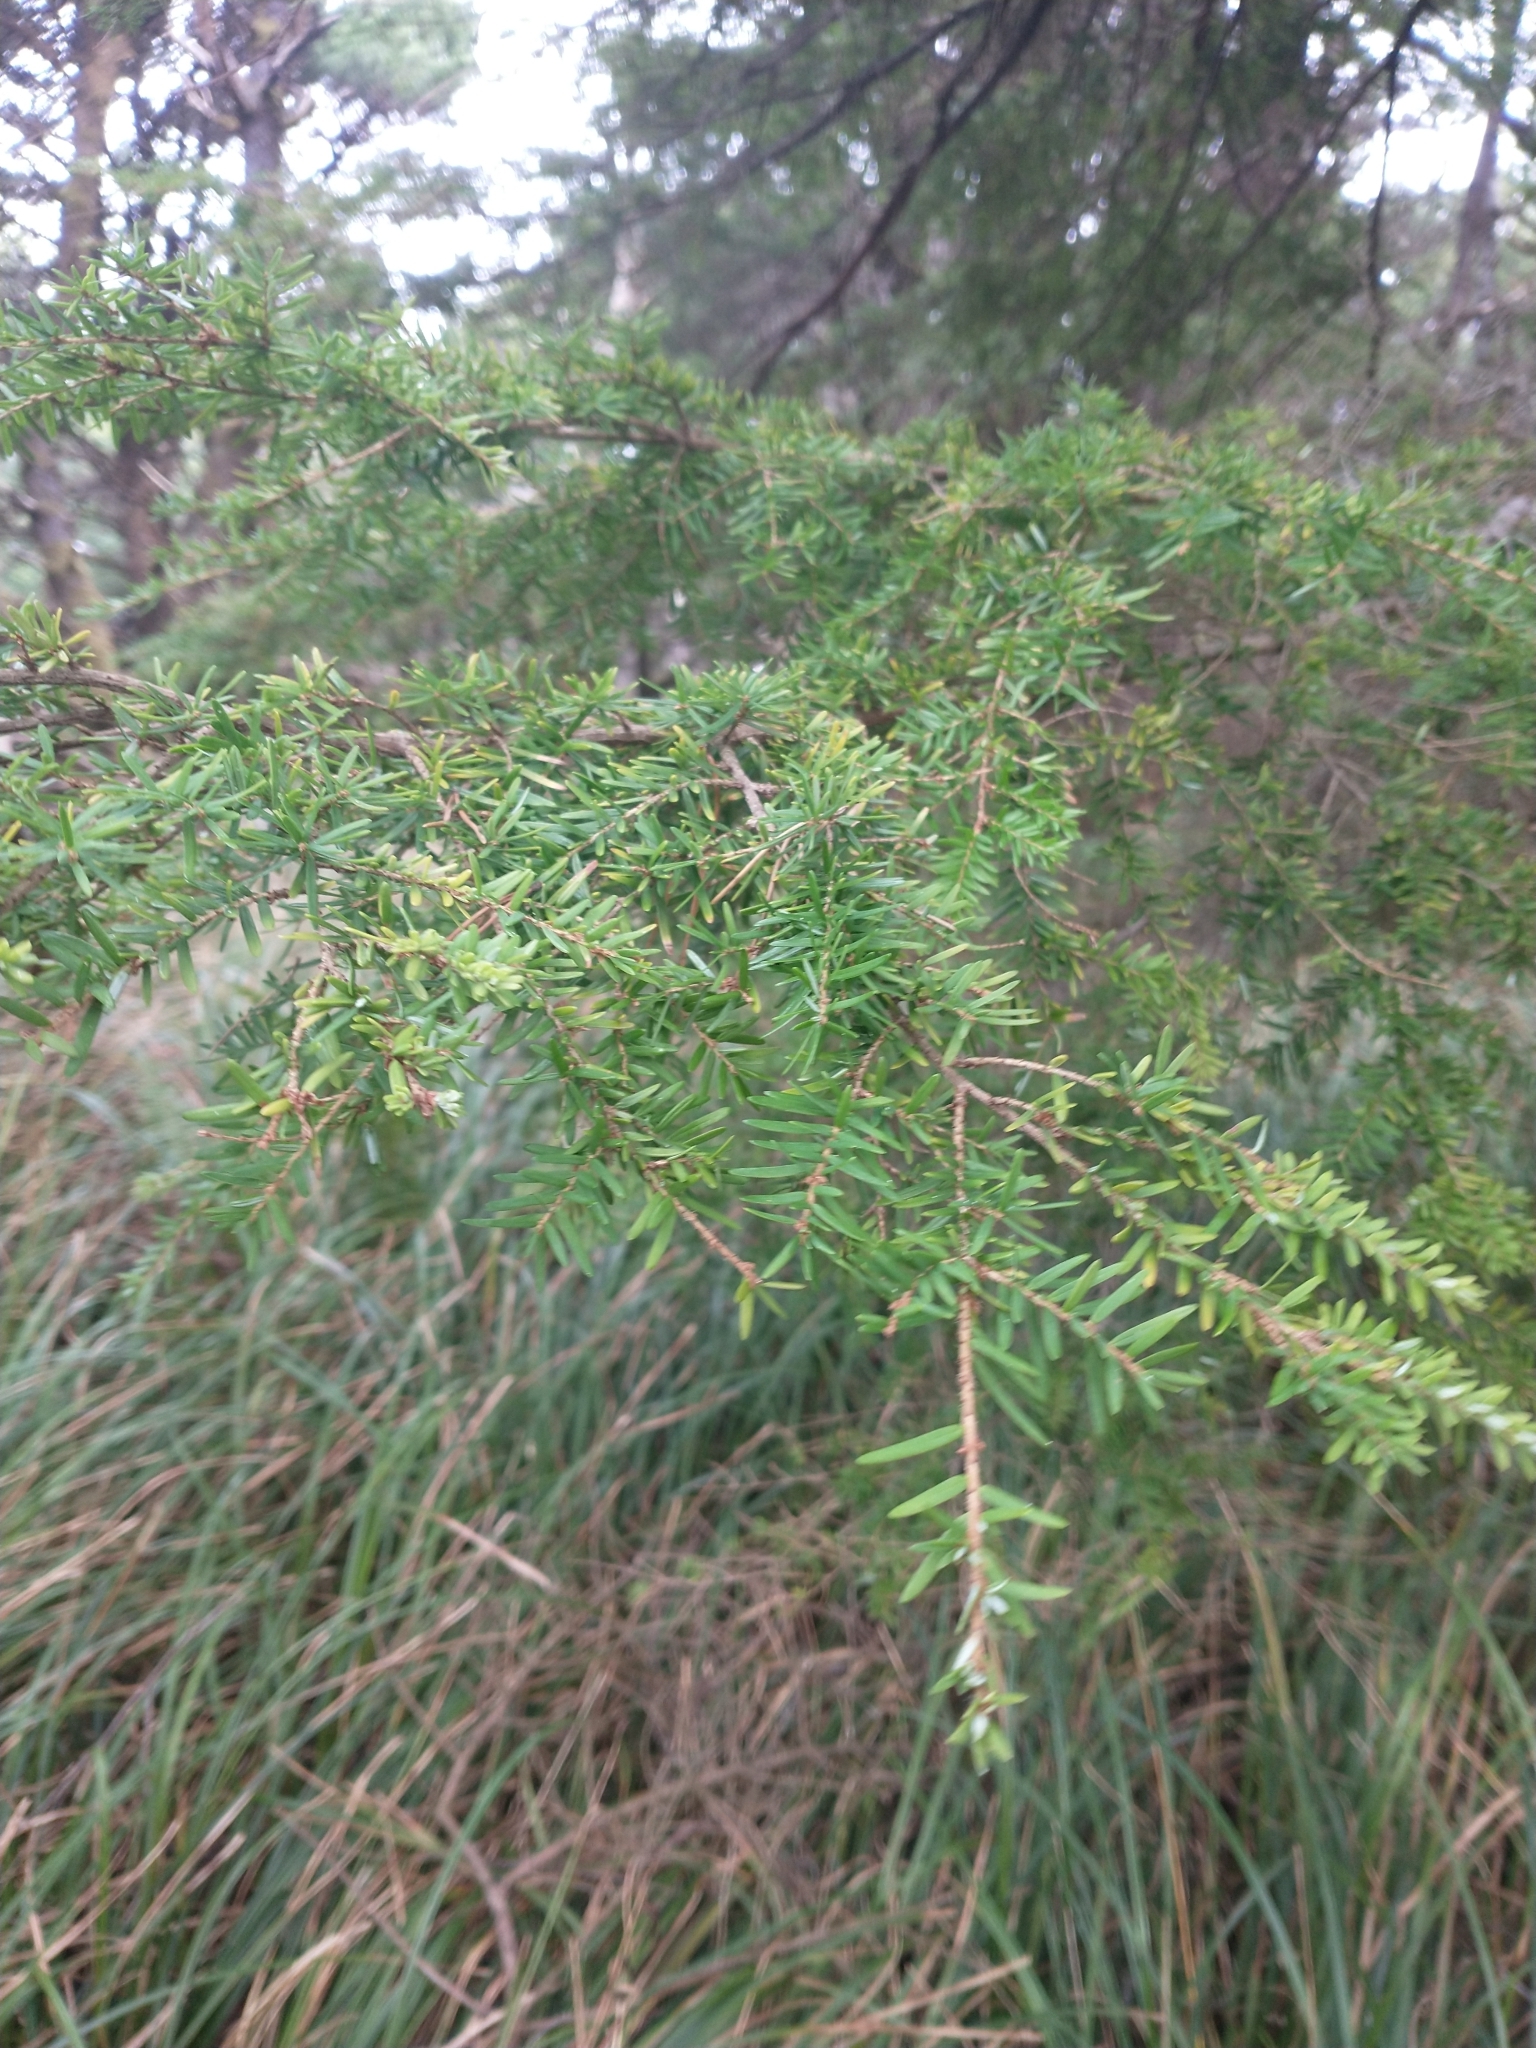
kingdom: Plantae
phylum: Tracheophyta
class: Pinopsida
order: Pinales
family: Pinaceae
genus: Tsuga
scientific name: Tsuga heterophylla
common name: Western hemlock
